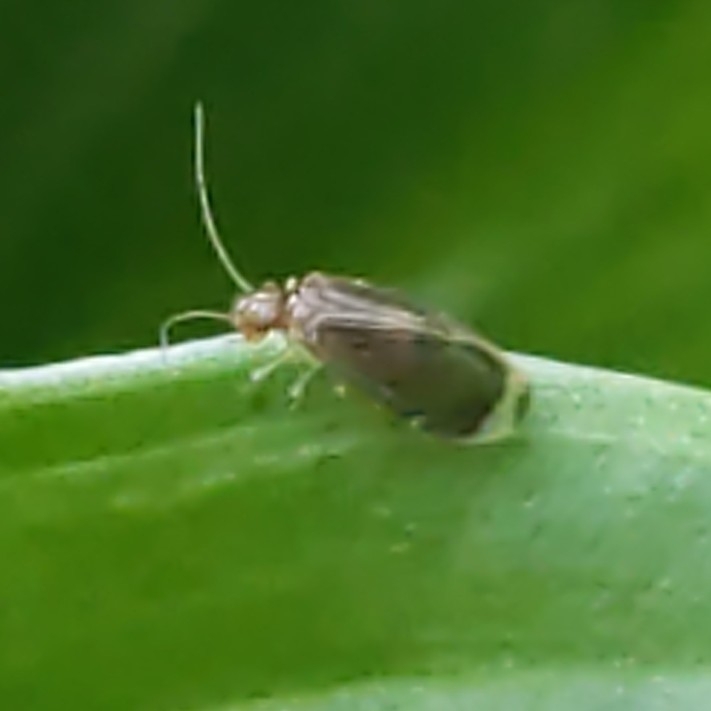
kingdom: Animalia
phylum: Arthropoda
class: Insecta
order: Psocodea
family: Amphipsocidae
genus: Polypsocus
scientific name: Polypsocus corruptus
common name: Corrupt barklouse
